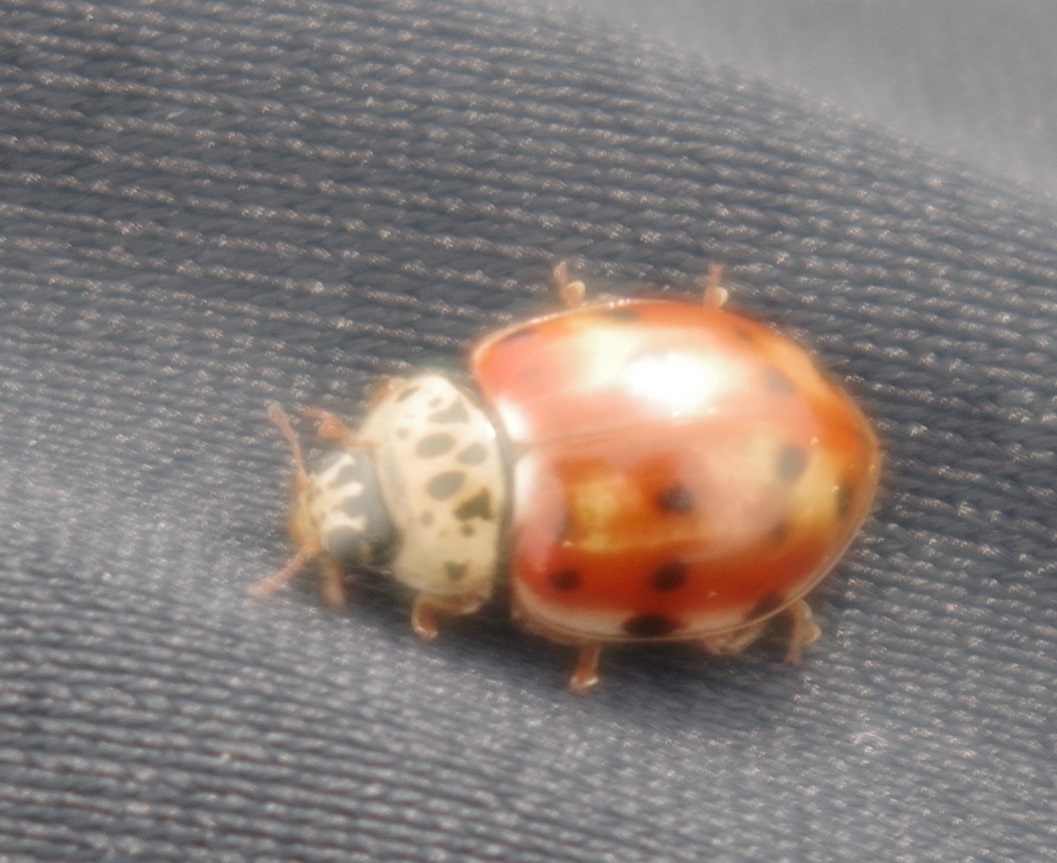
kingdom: Animalia
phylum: Arthropoda
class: Insecta
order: Coleoptera
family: Coccinellidae
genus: Harmonia
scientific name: Harmonia quadripunctata
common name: Cream-streaked ladybird
